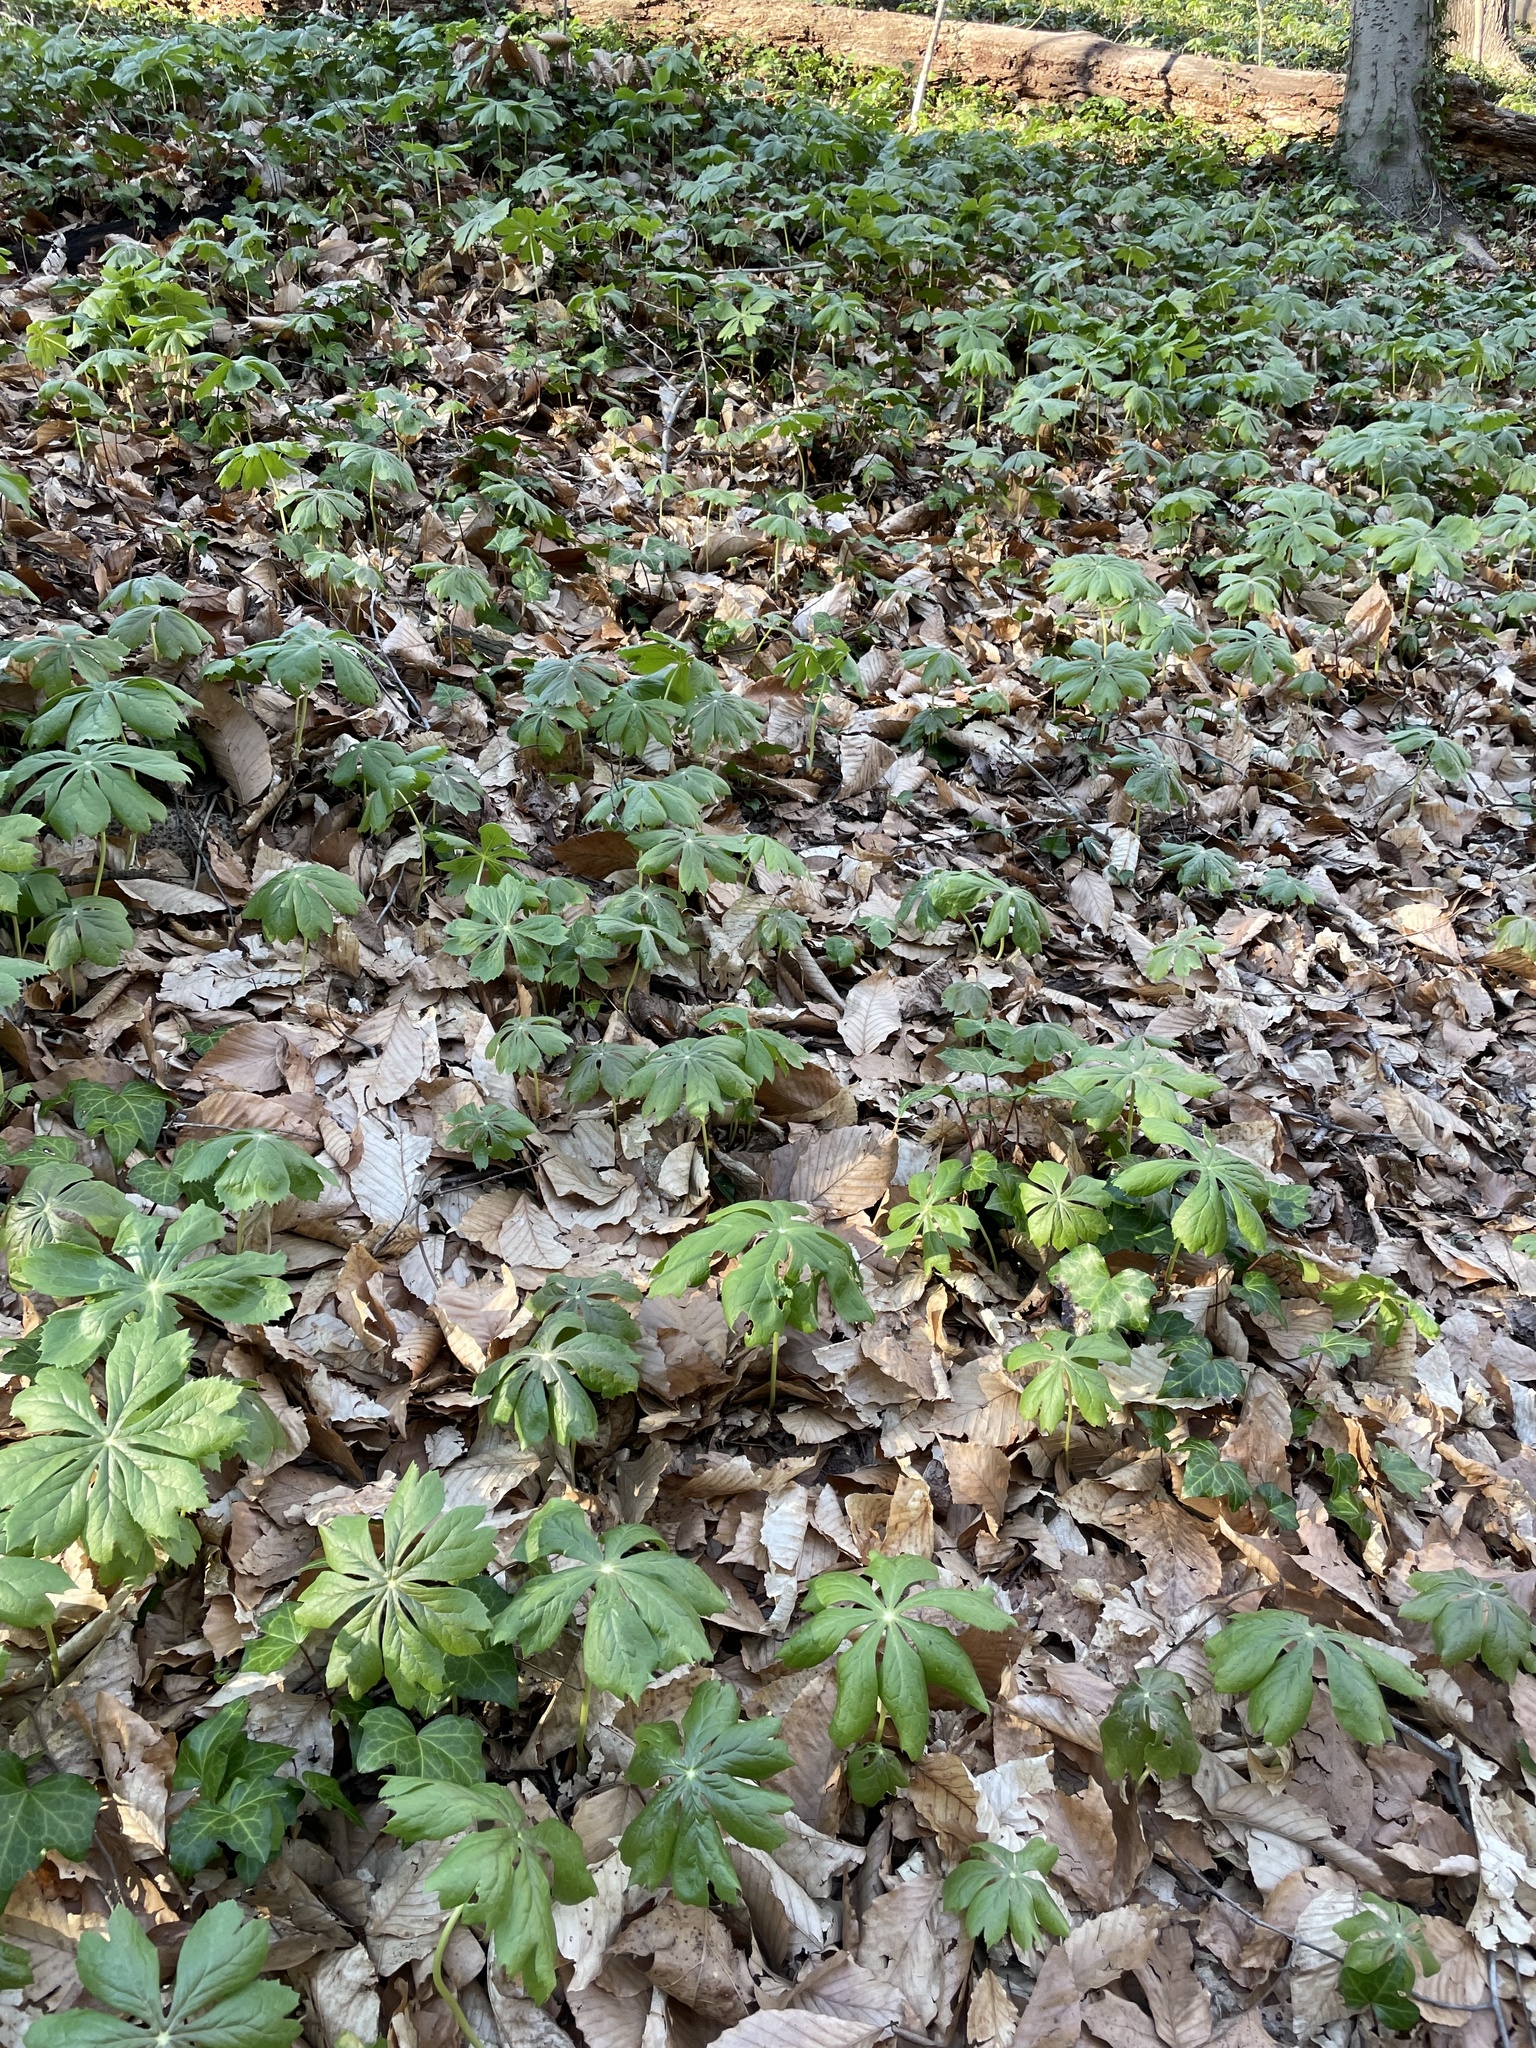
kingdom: Plantae
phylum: Tracheophyta
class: Magnoliopsida
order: Ranunculales
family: Berberidaceae
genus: Podophyllum
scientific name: Podophyllum peltatum
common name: Wild mandrake
